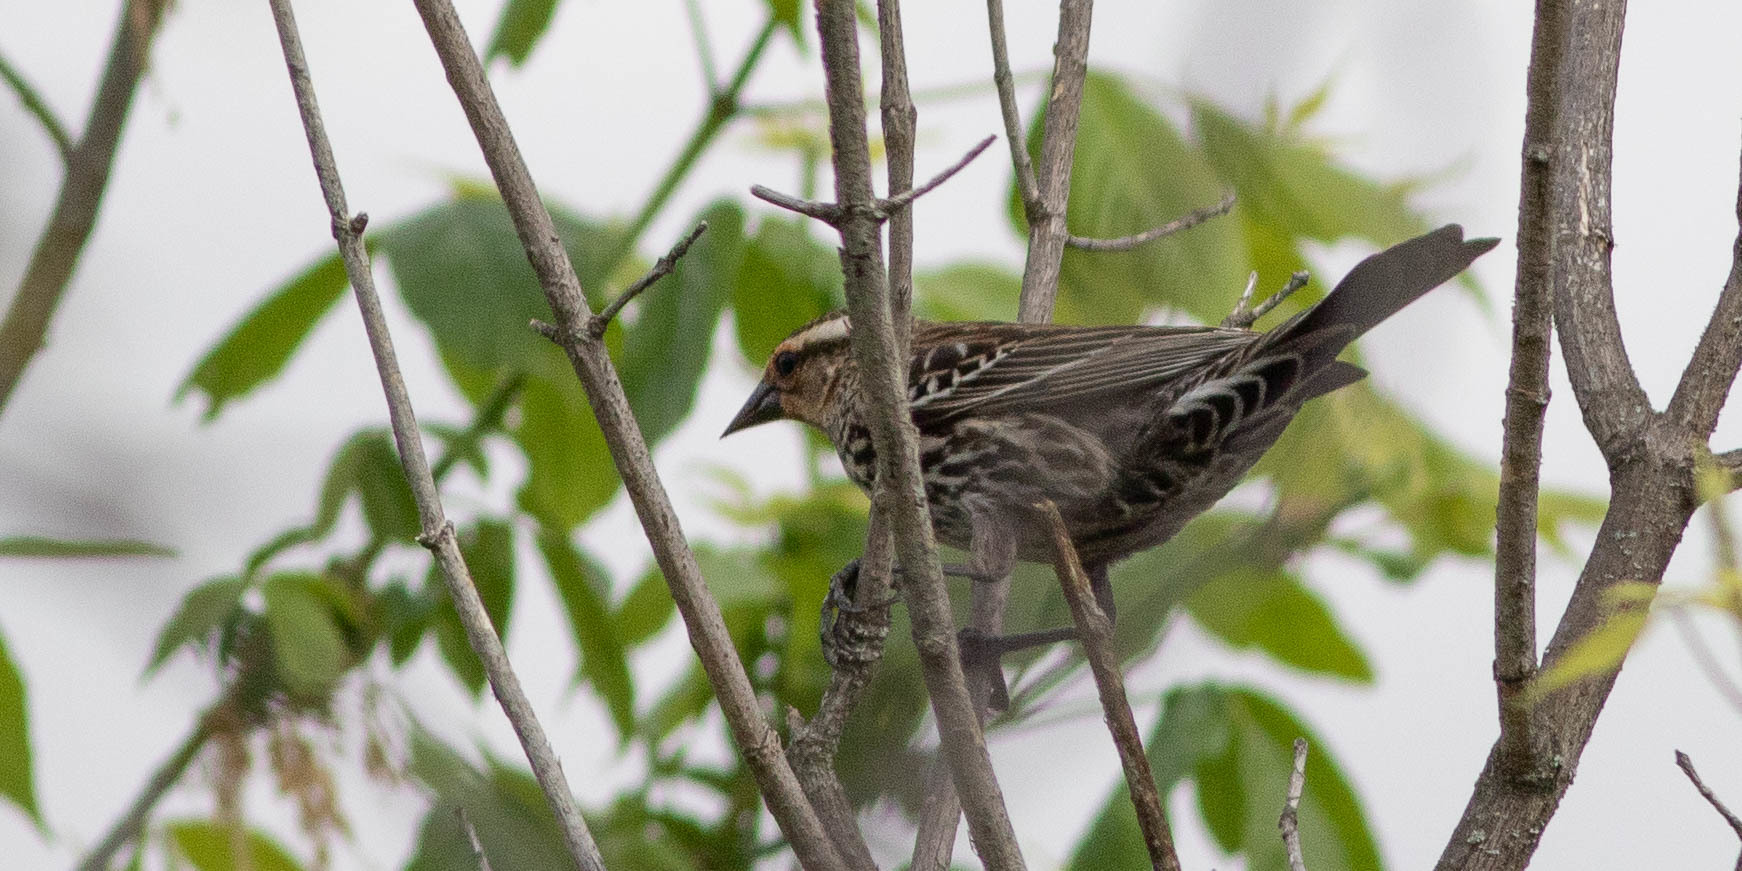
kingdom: Animalia
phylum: Chordata
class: Aves
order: Passeriformes
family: Icteridae
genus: Agelaius
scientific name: Agelaius phoeniceus
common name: Red-winged blackbird
